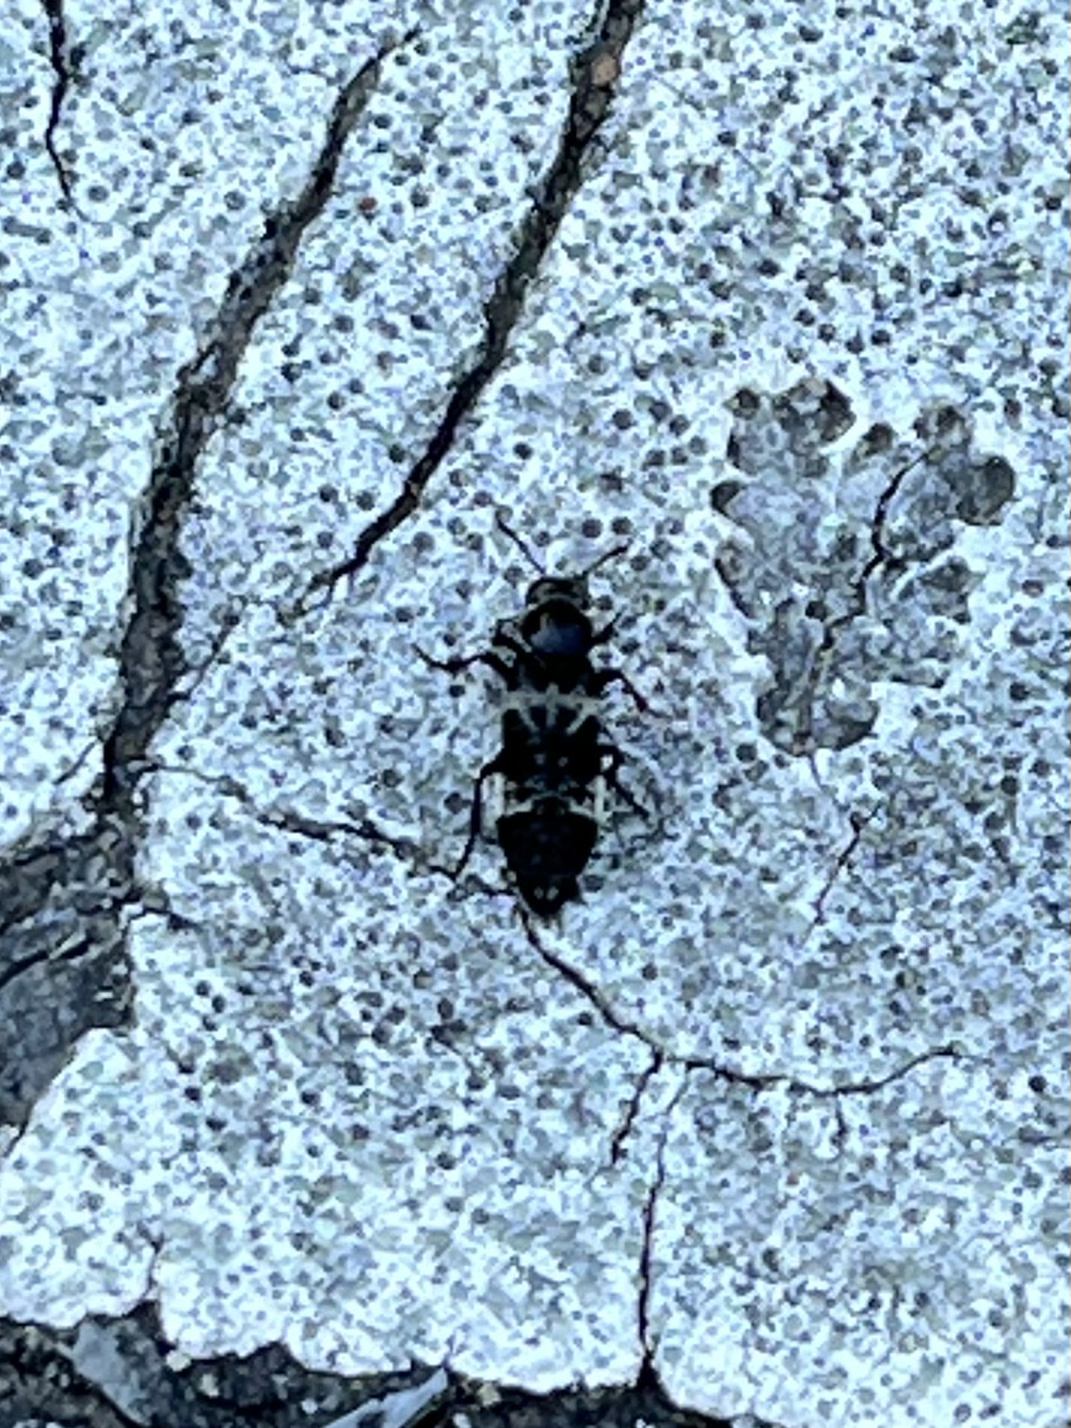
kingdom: Animalia
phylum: Arthropoda
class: Insecta
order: Coleoptera
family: Staphylinidae
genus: Creophilus
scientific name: Creophilus maxillosus
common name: Hairy rove beetle
